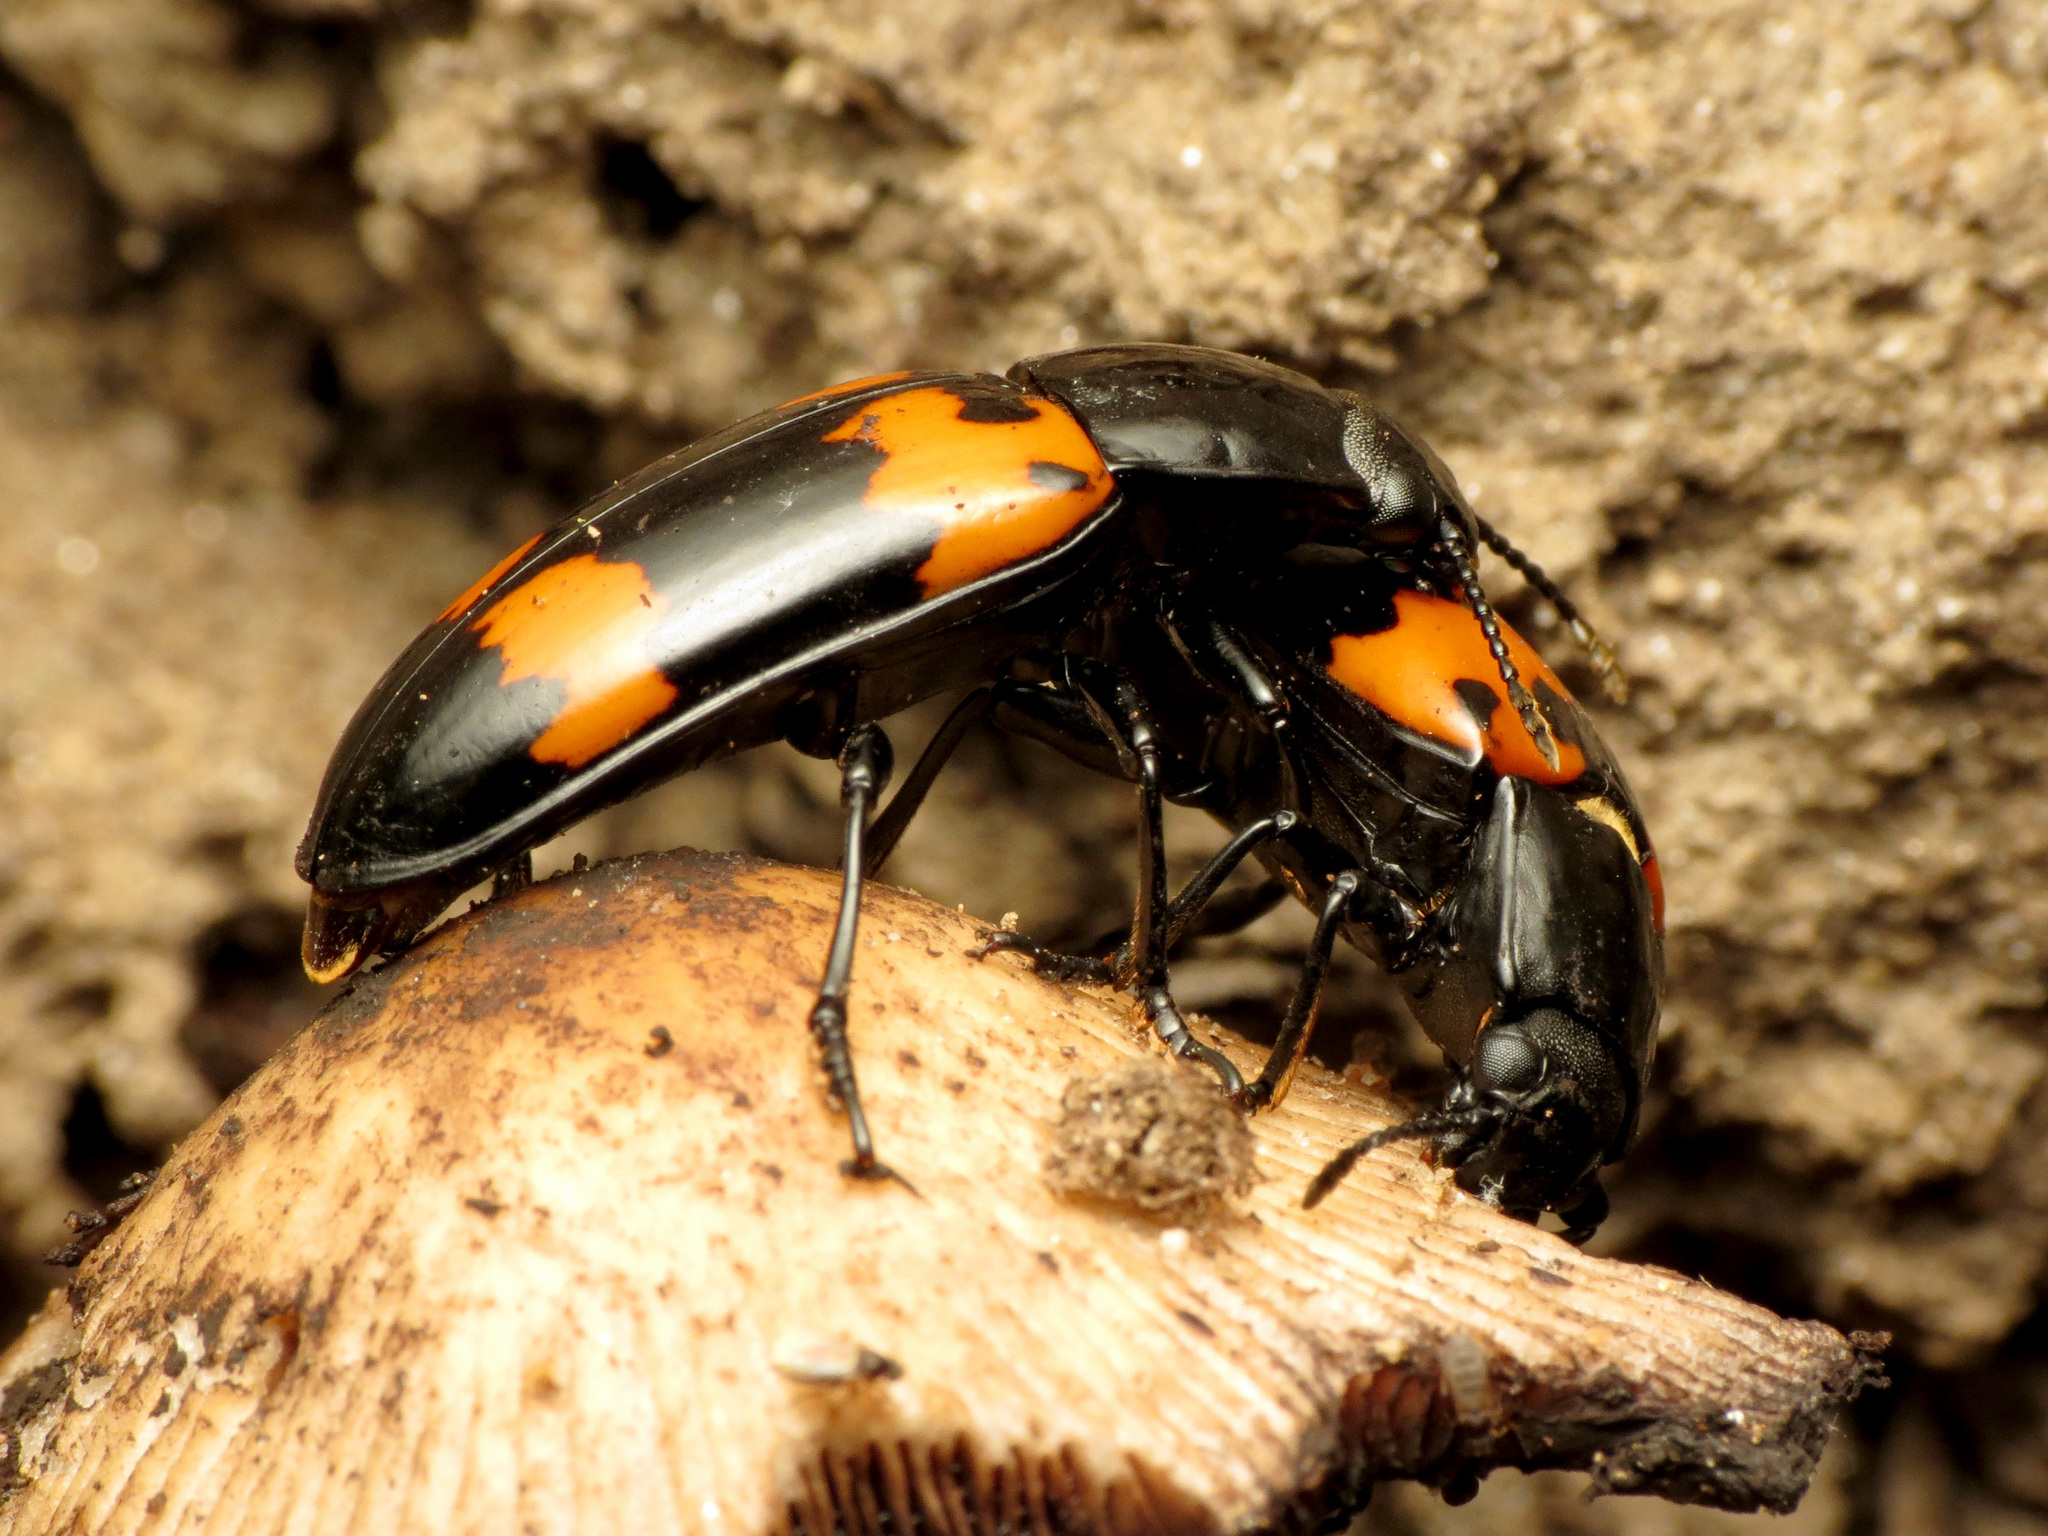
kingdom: Animalia
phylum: Arthropoda
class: Insecta
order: Coleoptera
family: Erotylidae
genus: Megalodacne
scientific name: Megalodacne heros
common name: Pleasing fungus beetle
